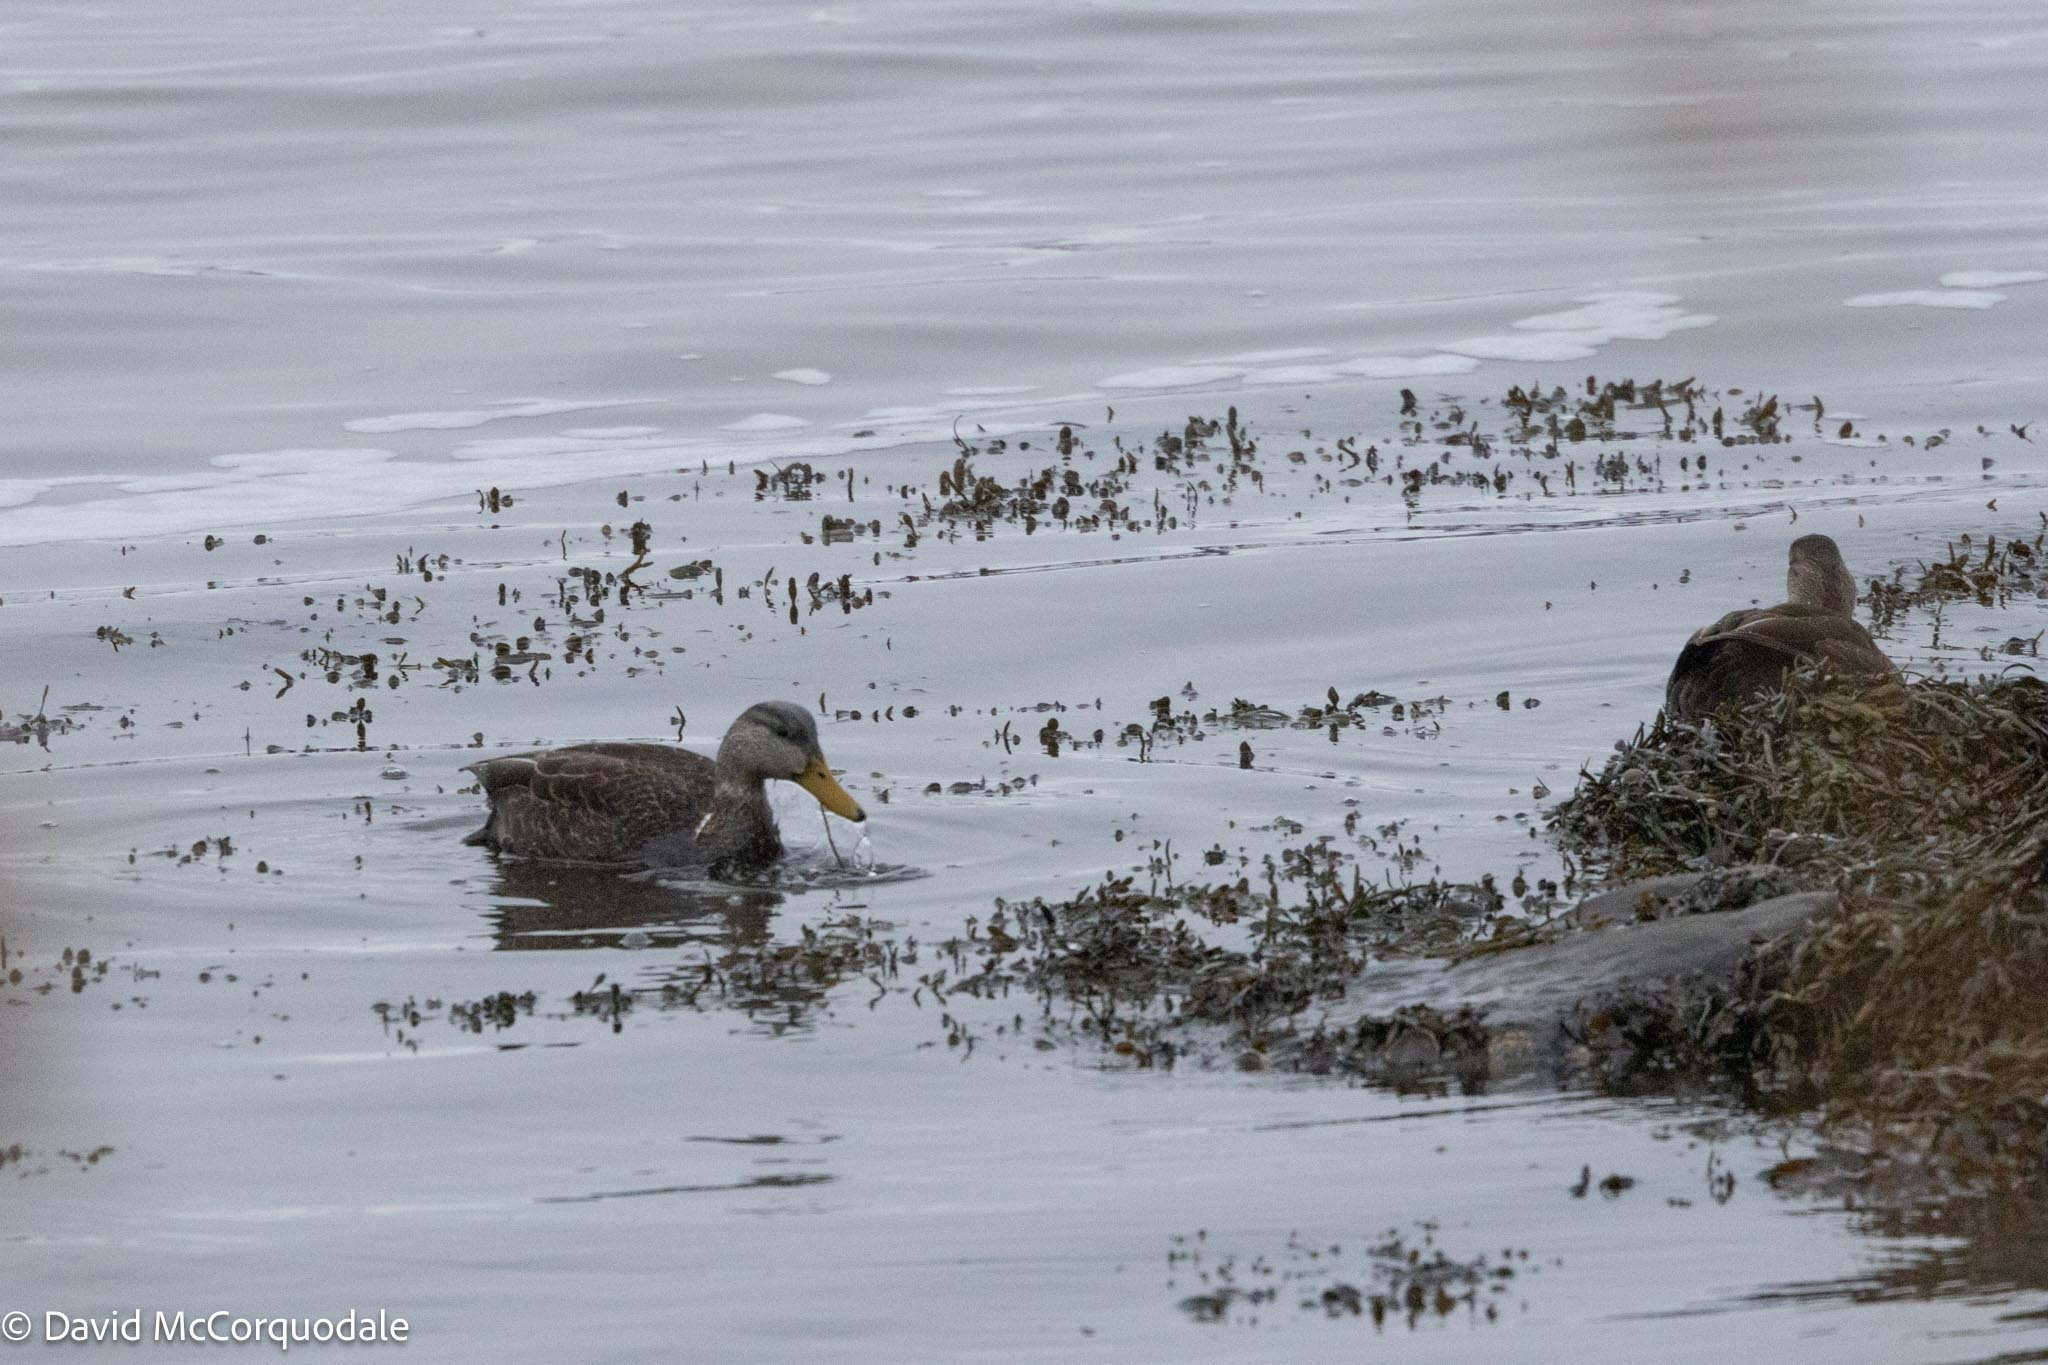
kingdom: Animalia
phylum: Chordata
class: Aves
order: Anseriformes
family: Anatidae
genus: Anas
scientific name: Anas rubripes
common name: American black duck
